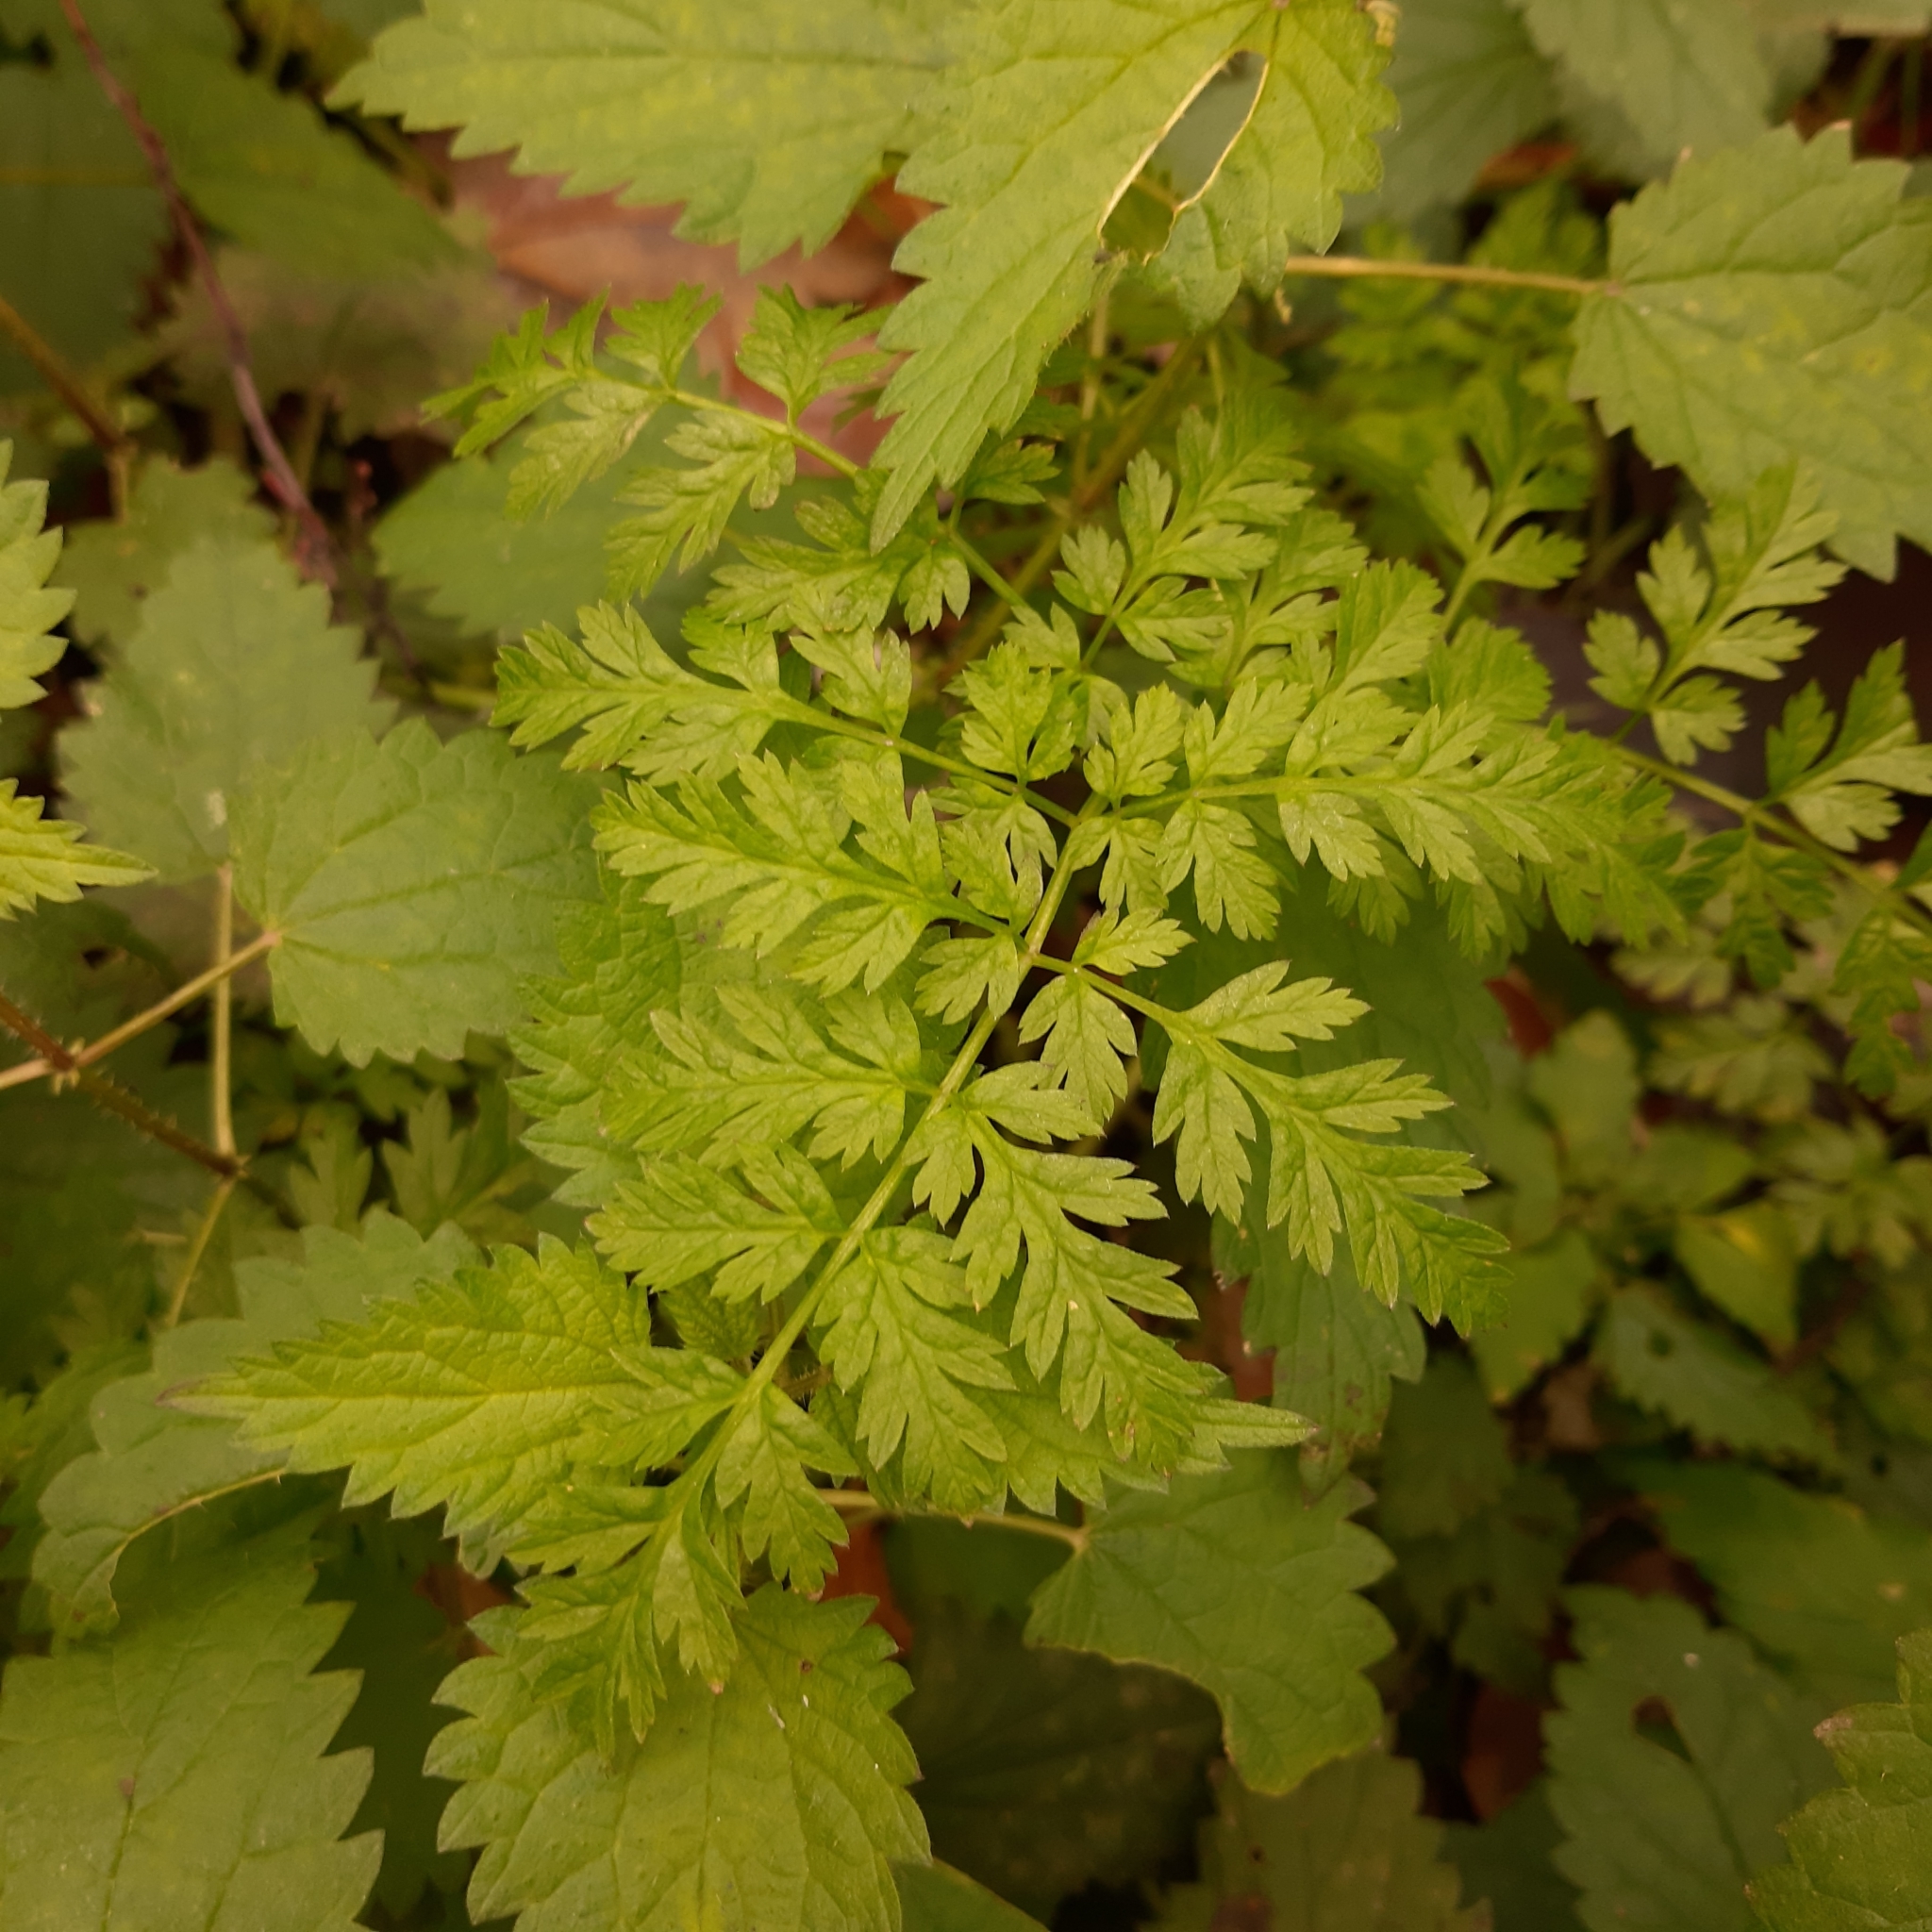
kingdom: Plantae
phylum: Tracheophyta
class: Magnoliopsida
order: Apiales
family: Apiaceae
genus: Anthriscus
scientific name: Anthriscus sylvestris
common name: Cow parsley
